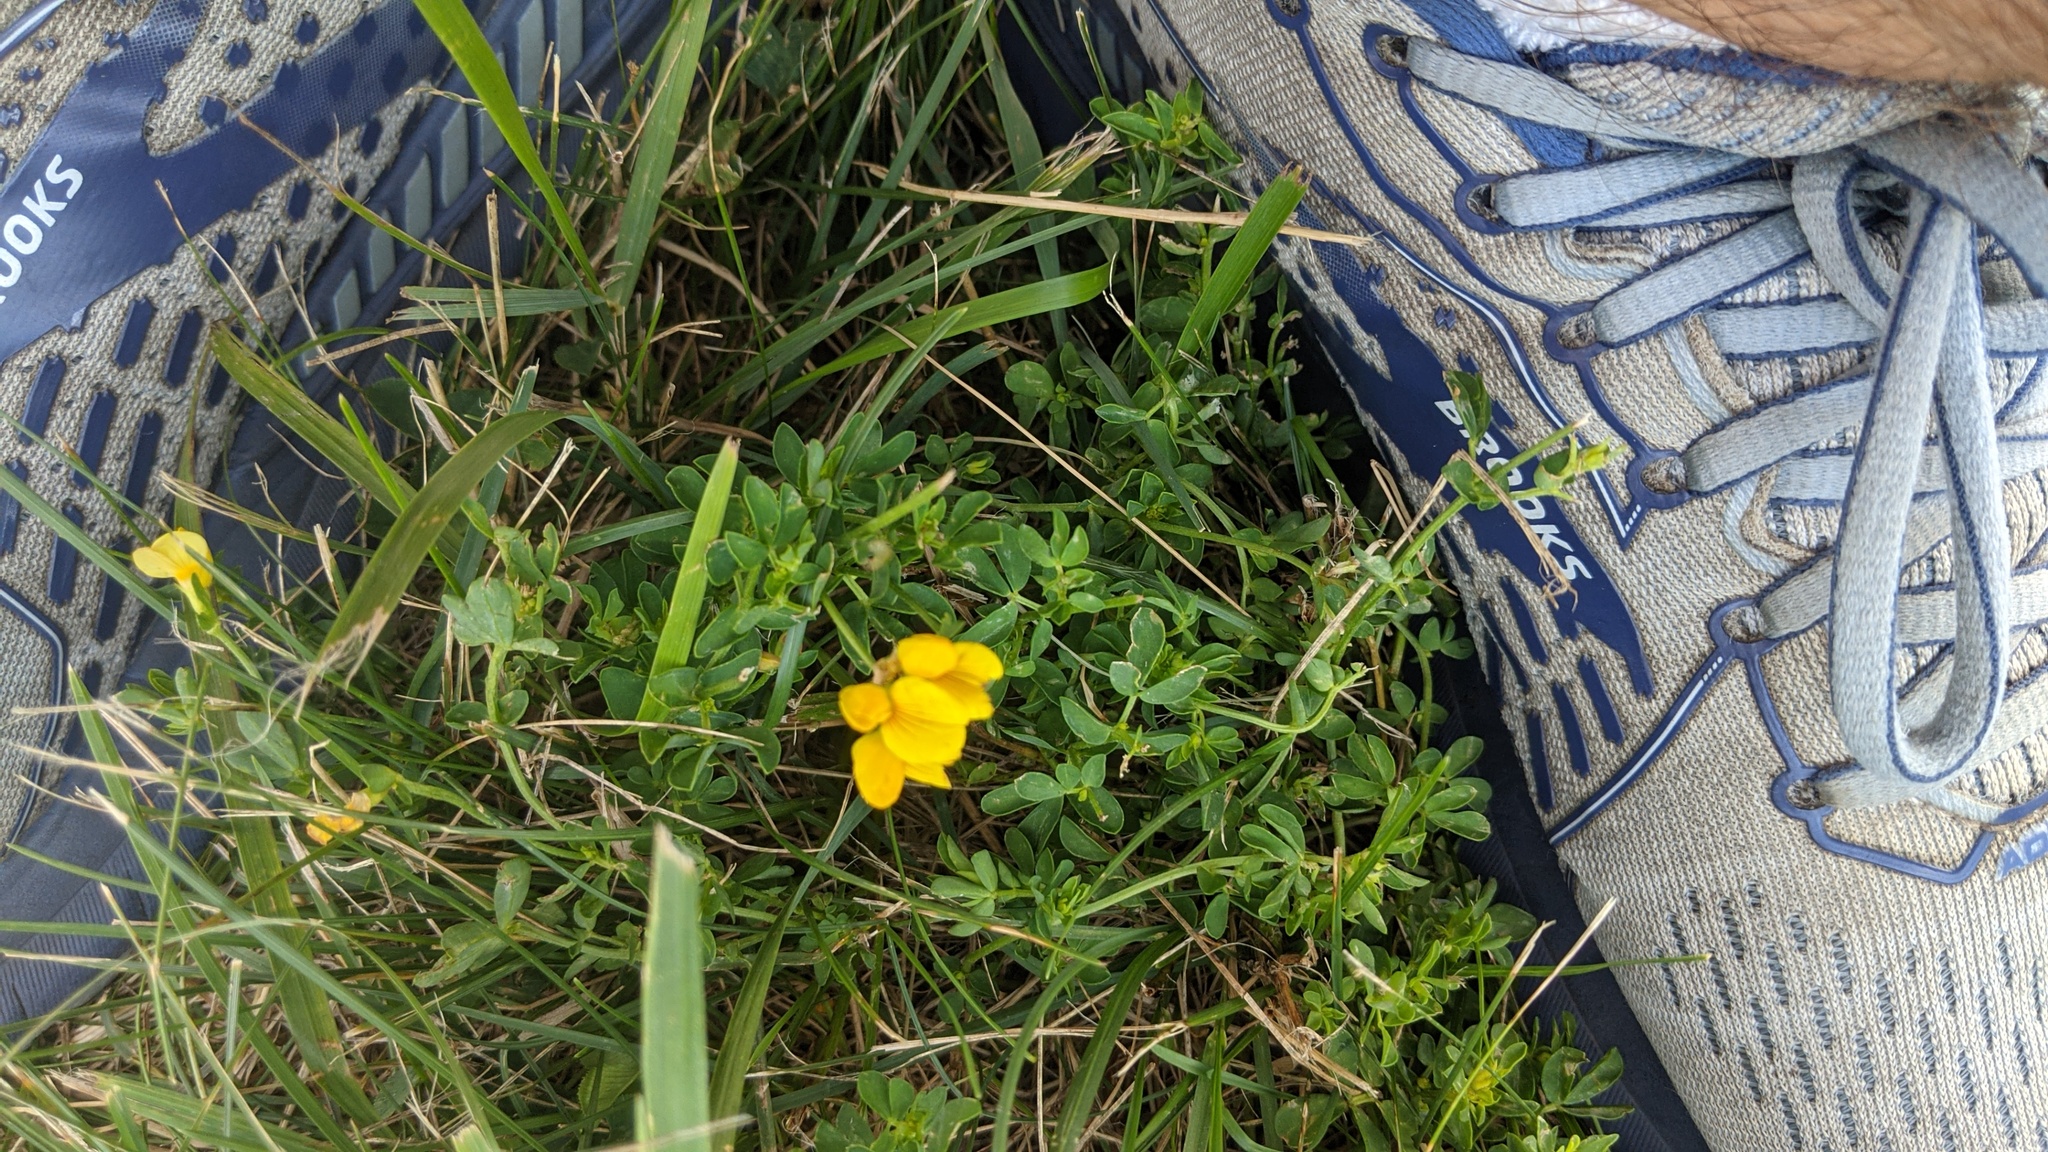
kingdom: Plantae
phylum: Tracheophyta
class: Magnoliopsida
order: Fabales
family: Fabaceae
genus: Lotus
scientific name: Lotus corniculatus
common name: Common bird's-foot-trefoil
